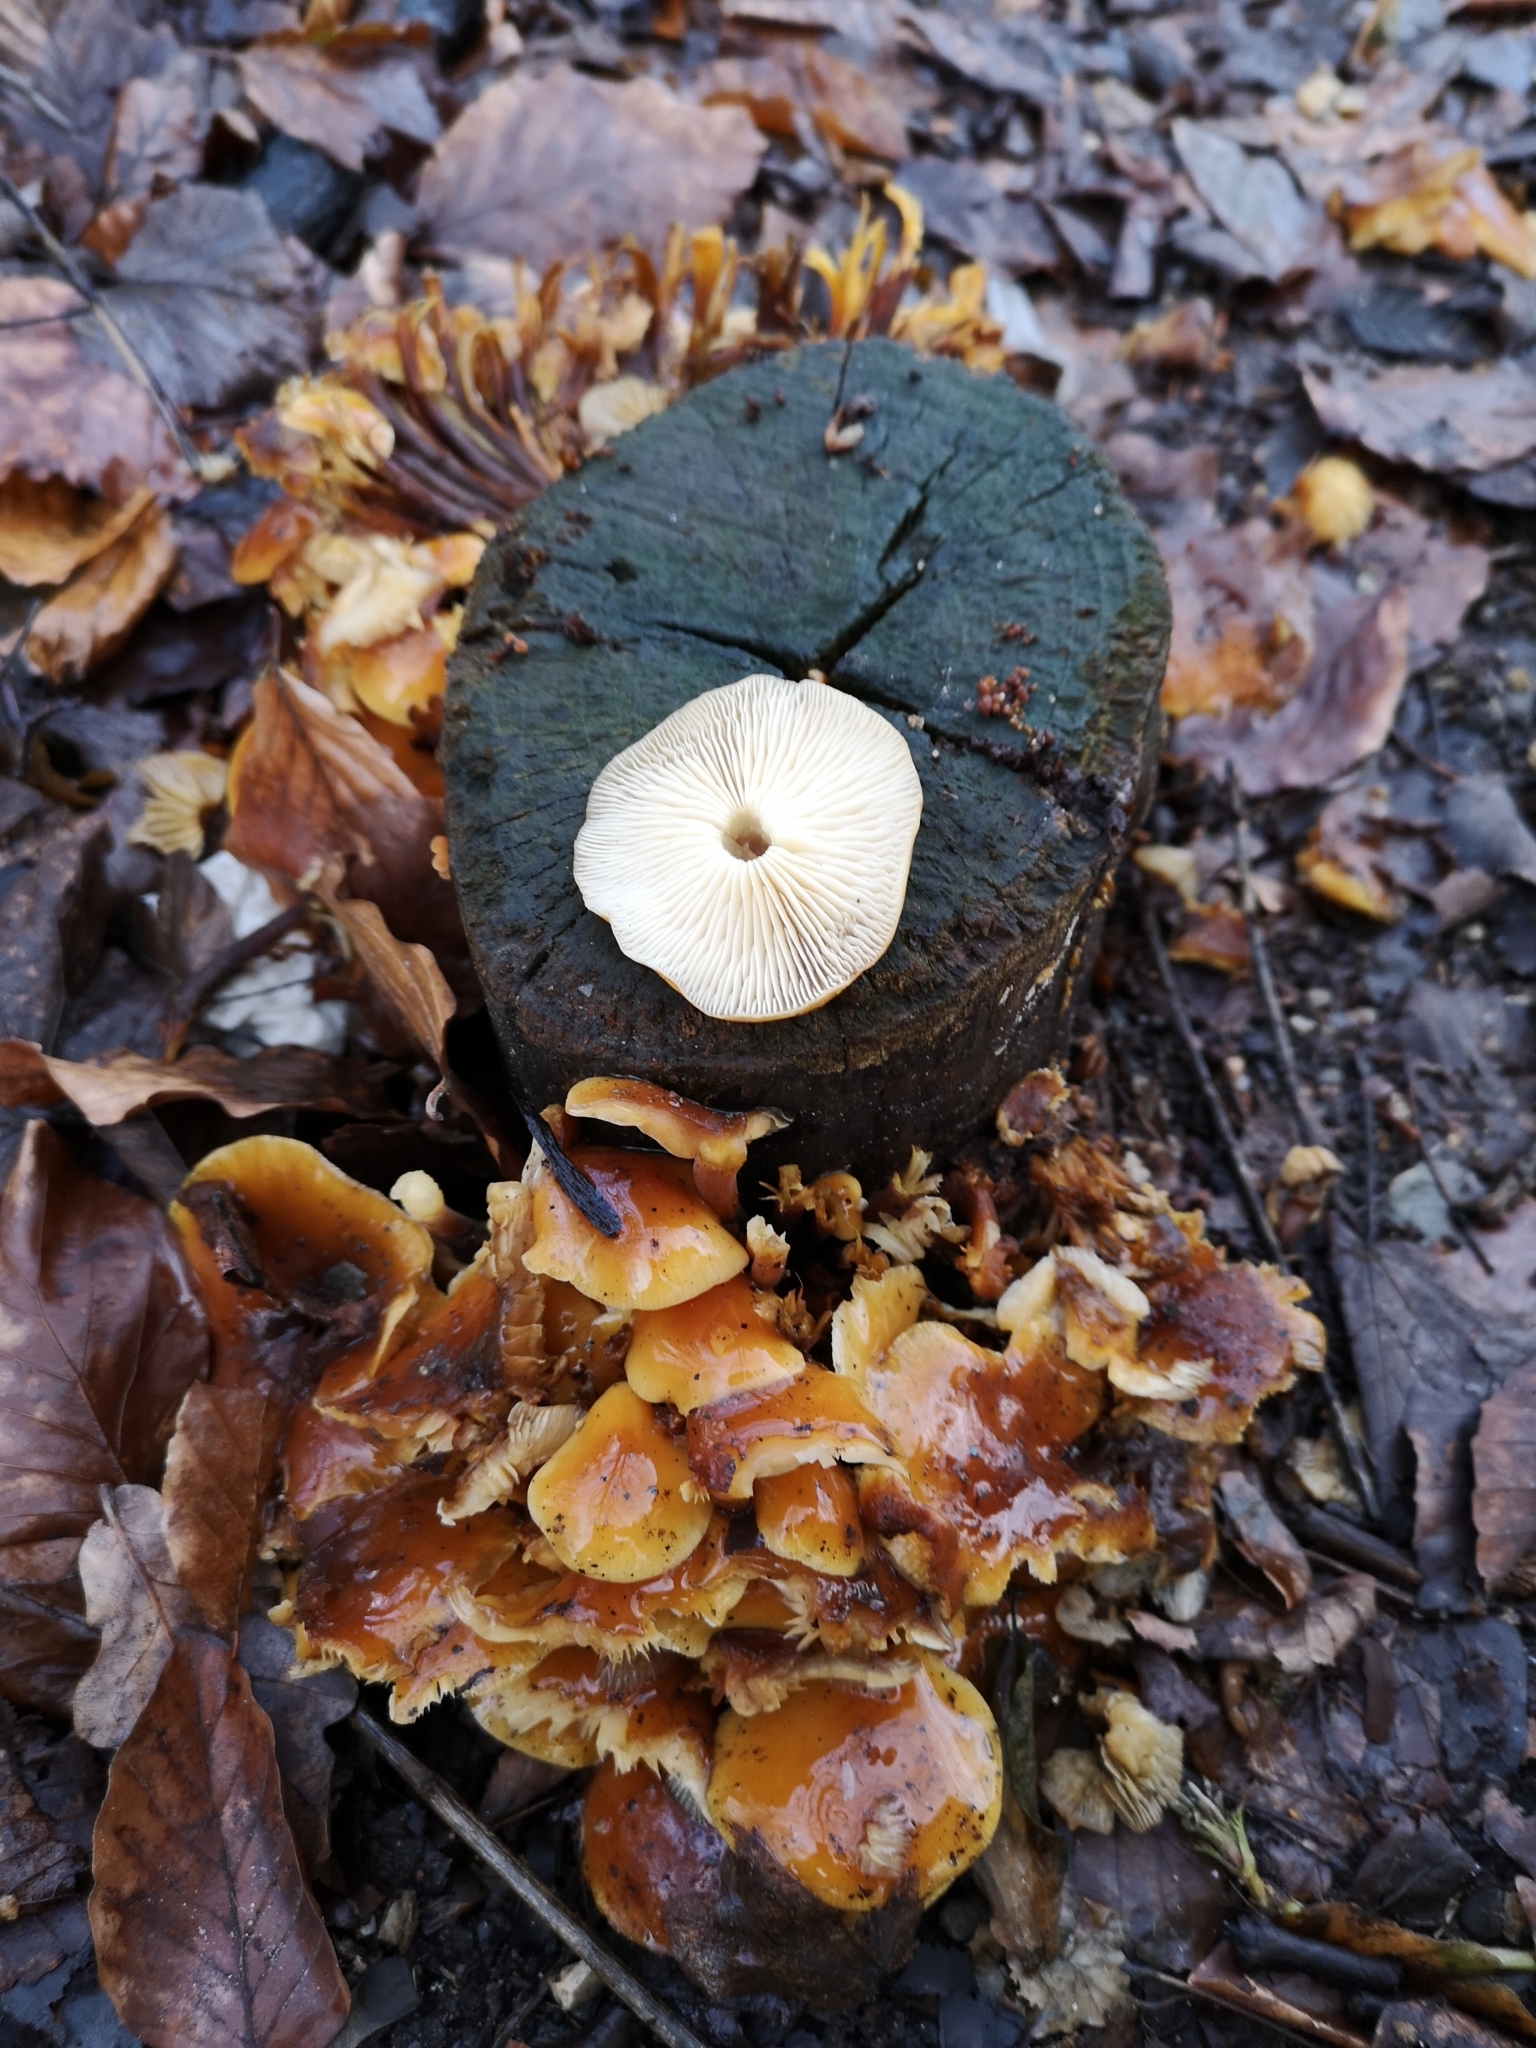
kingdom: Fungi
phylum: Basidiomycota
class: Agaricomycetes
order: Agaricales
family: Physalacriaceae
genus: Flammulina
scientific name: Flammulina
